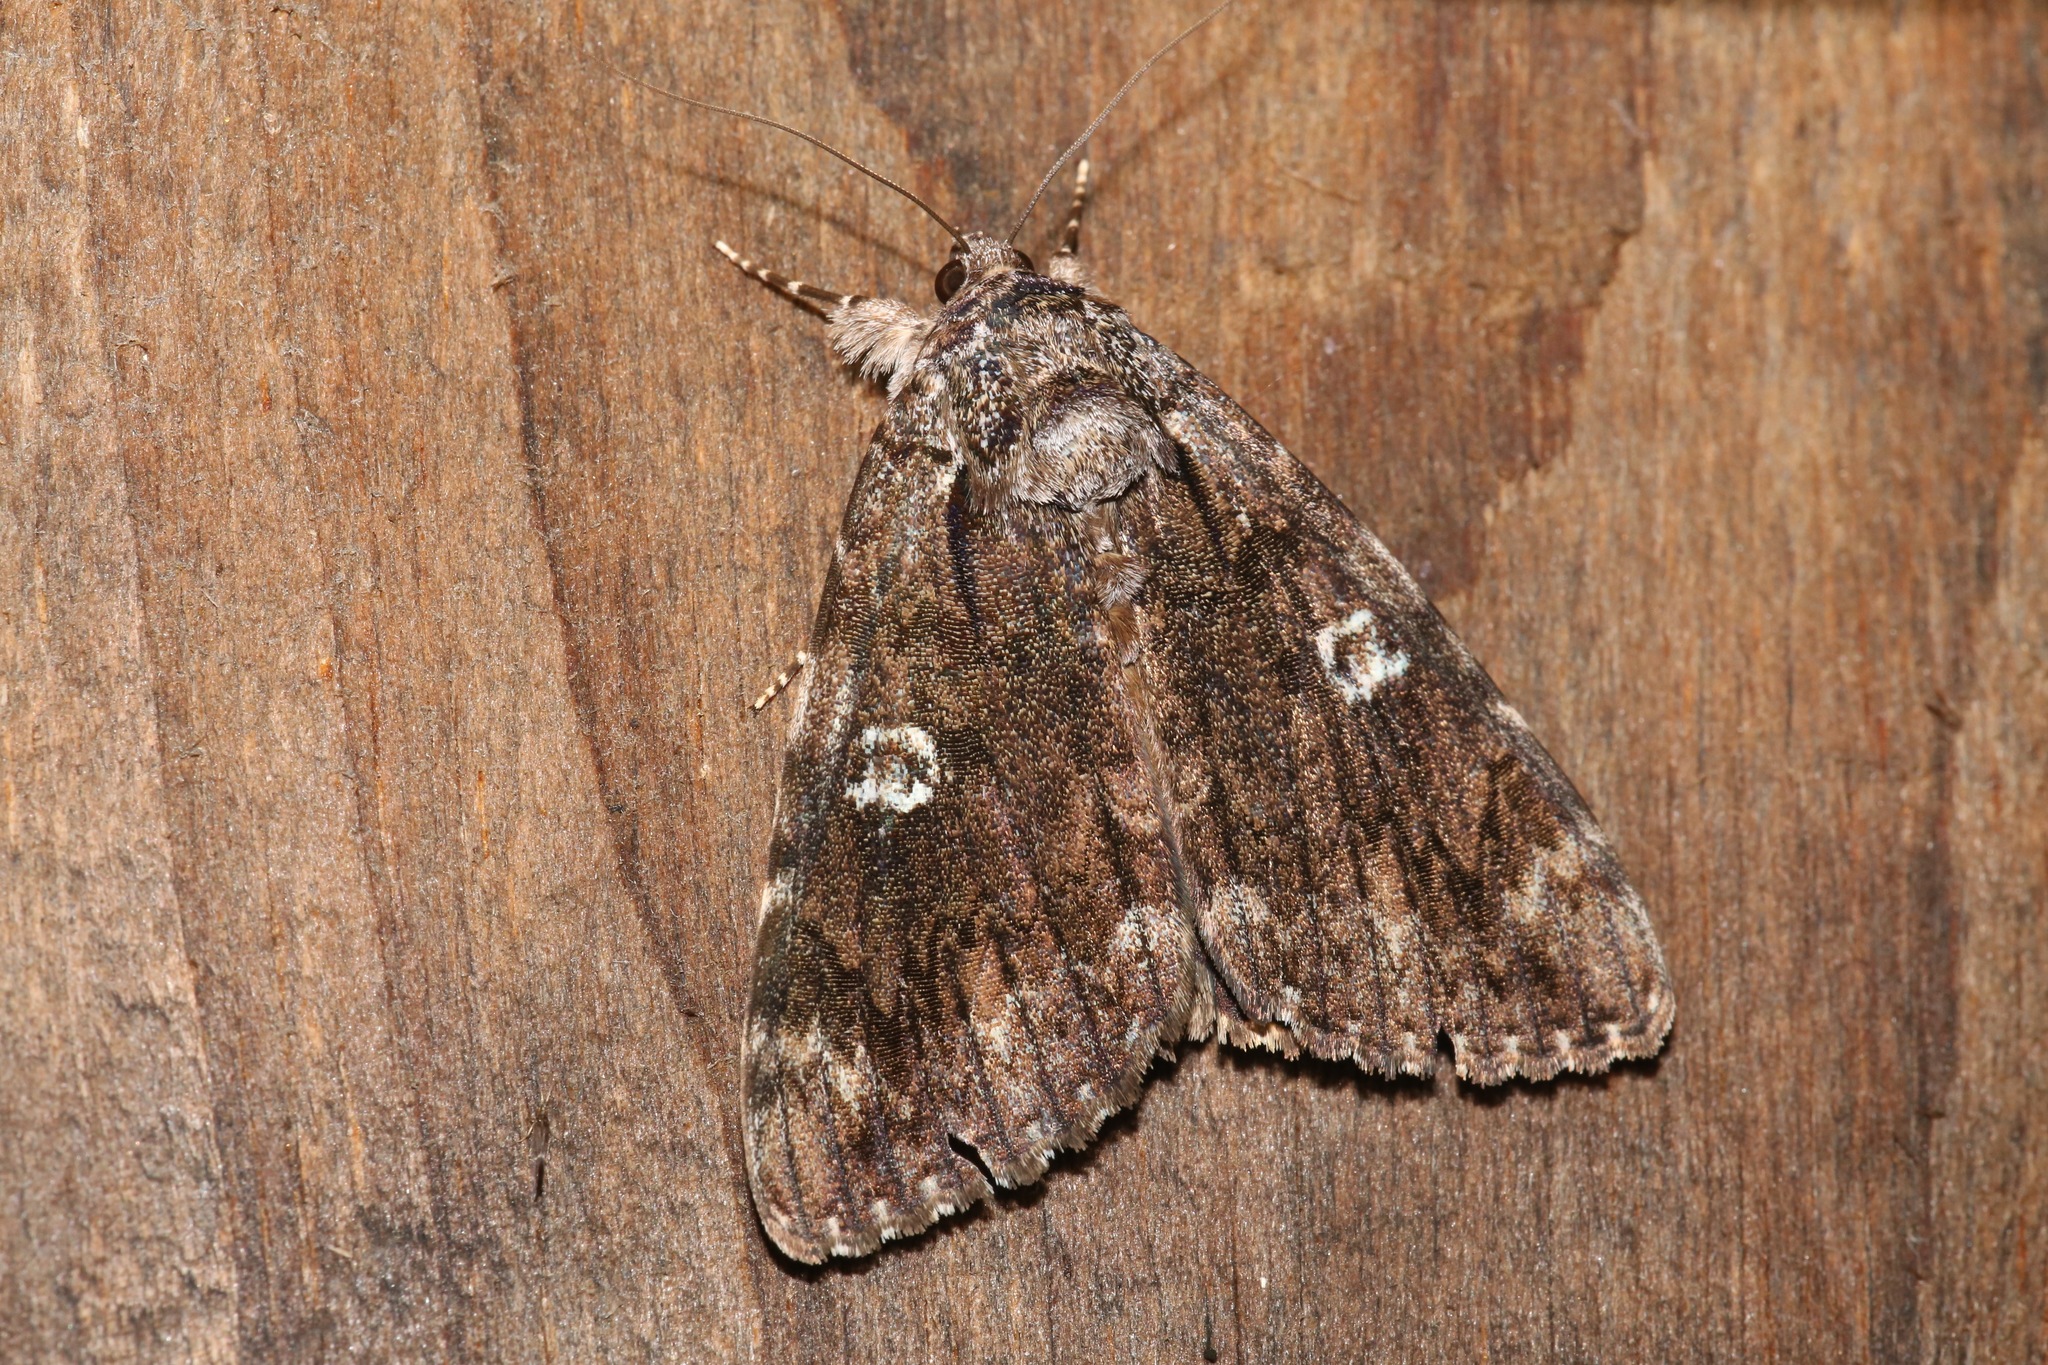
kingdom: Animalia
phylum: Arthropoda
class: Insecta
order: Lepidoptera
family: Erebidae
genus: Catocala
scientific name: Catocala ilia
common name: Ilia underwing
